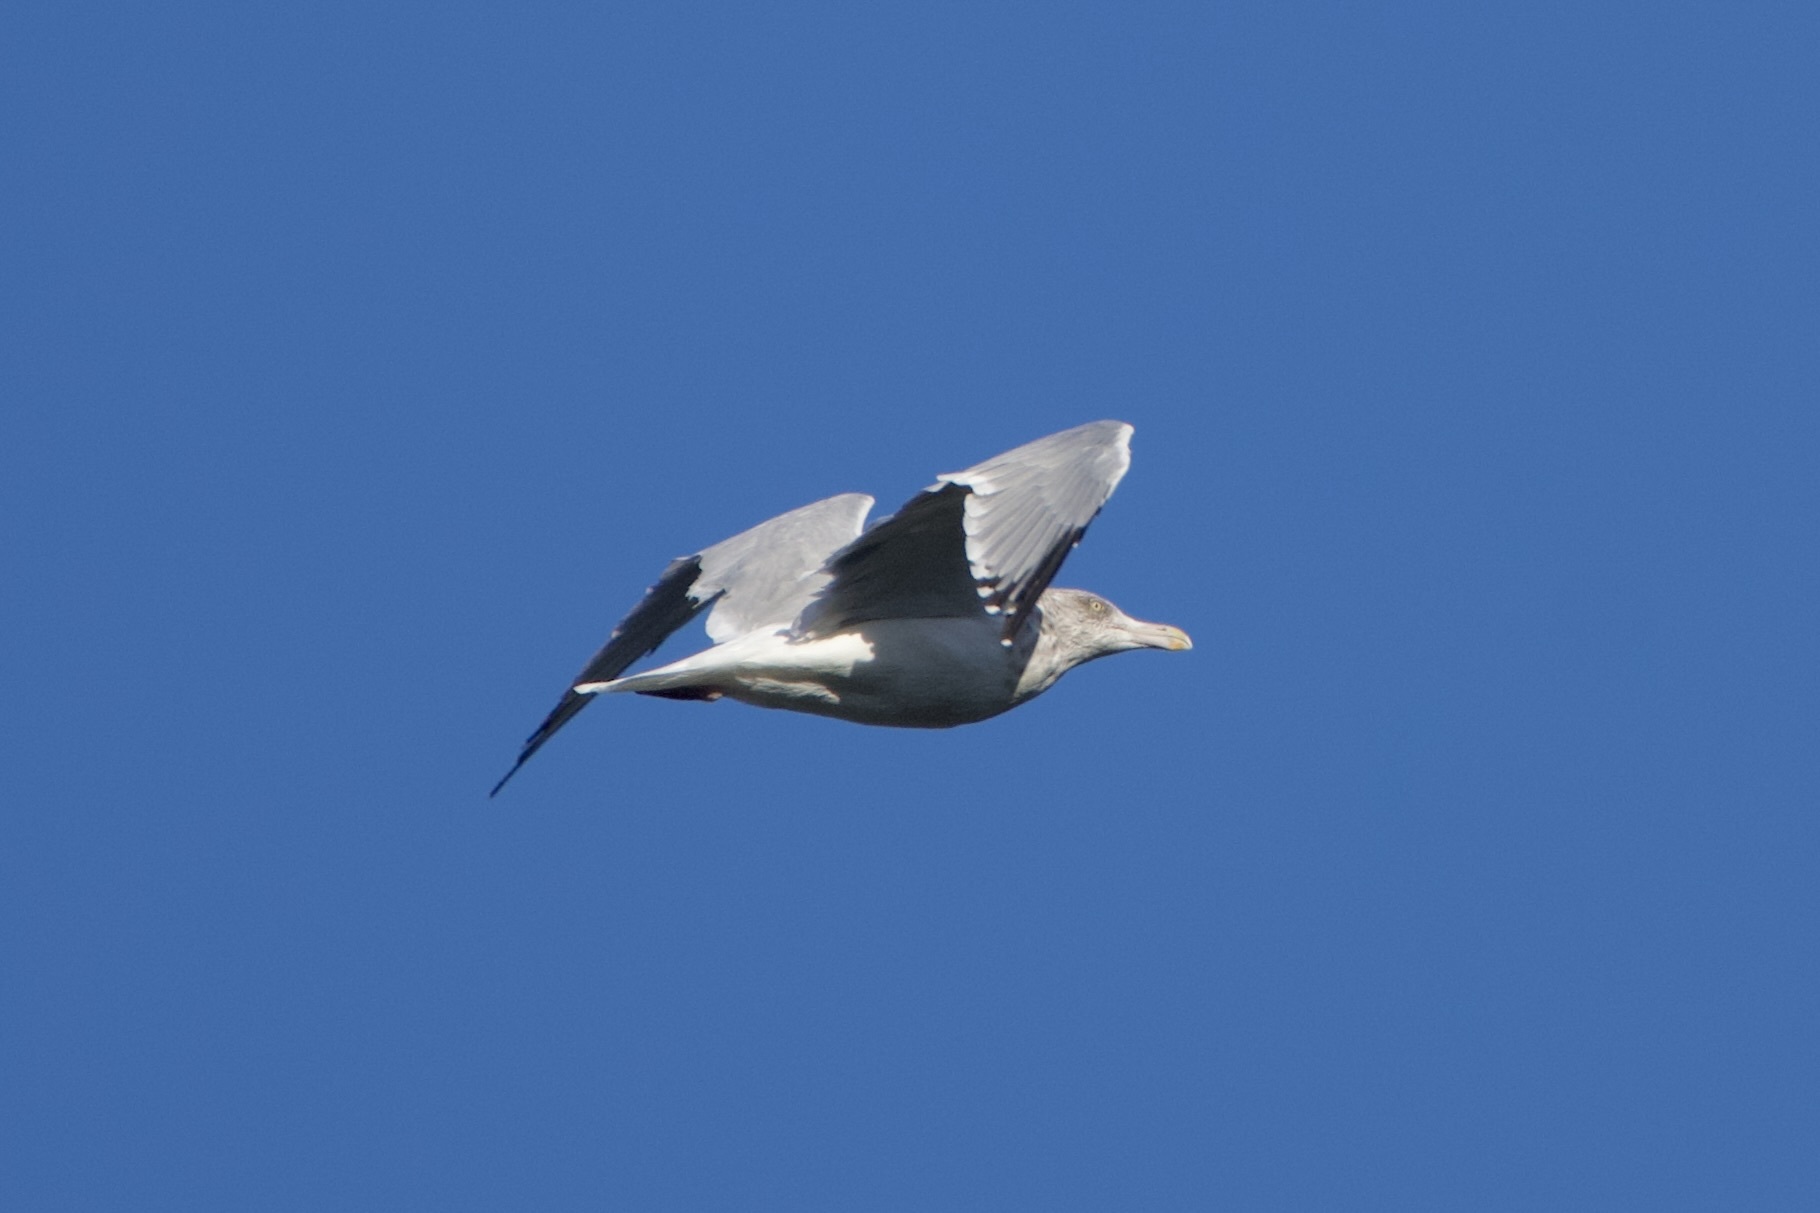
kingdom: Animalia
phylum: Chordata
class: Aves
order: Charadriiformes
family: Laridae
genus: Larus
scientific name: Larus argentatus
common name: Herring gull
